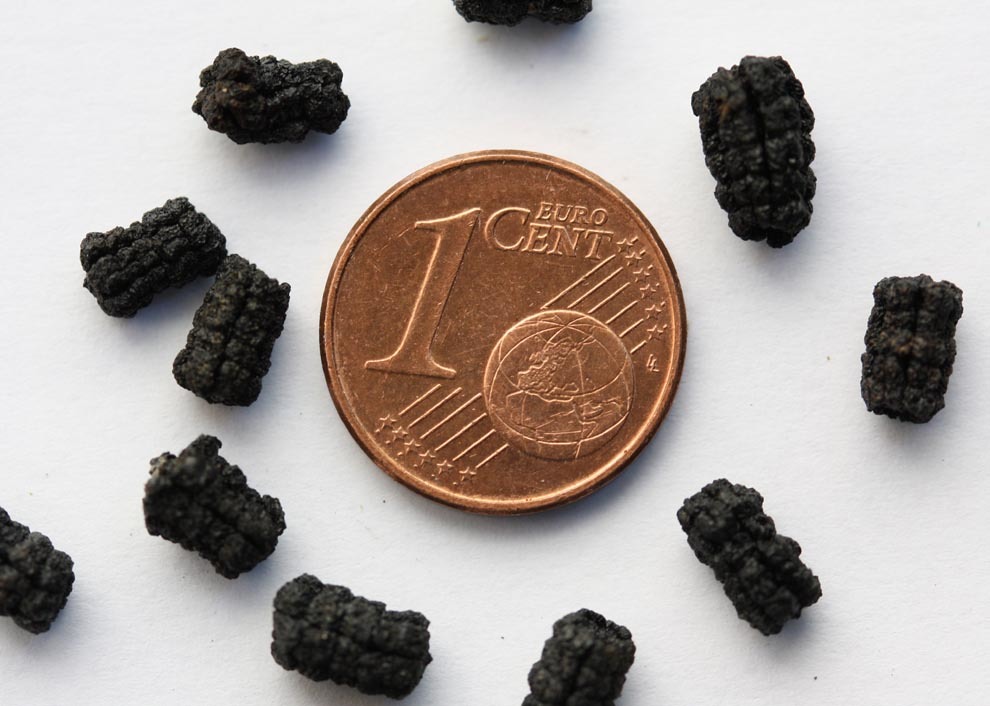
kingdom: Animalia
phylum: Arthropoda
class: Insecta
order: Lepidoptera
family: Sphingidae
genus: Sphinx
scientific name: Sphinx ligustri
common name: Privet hawk-moth
